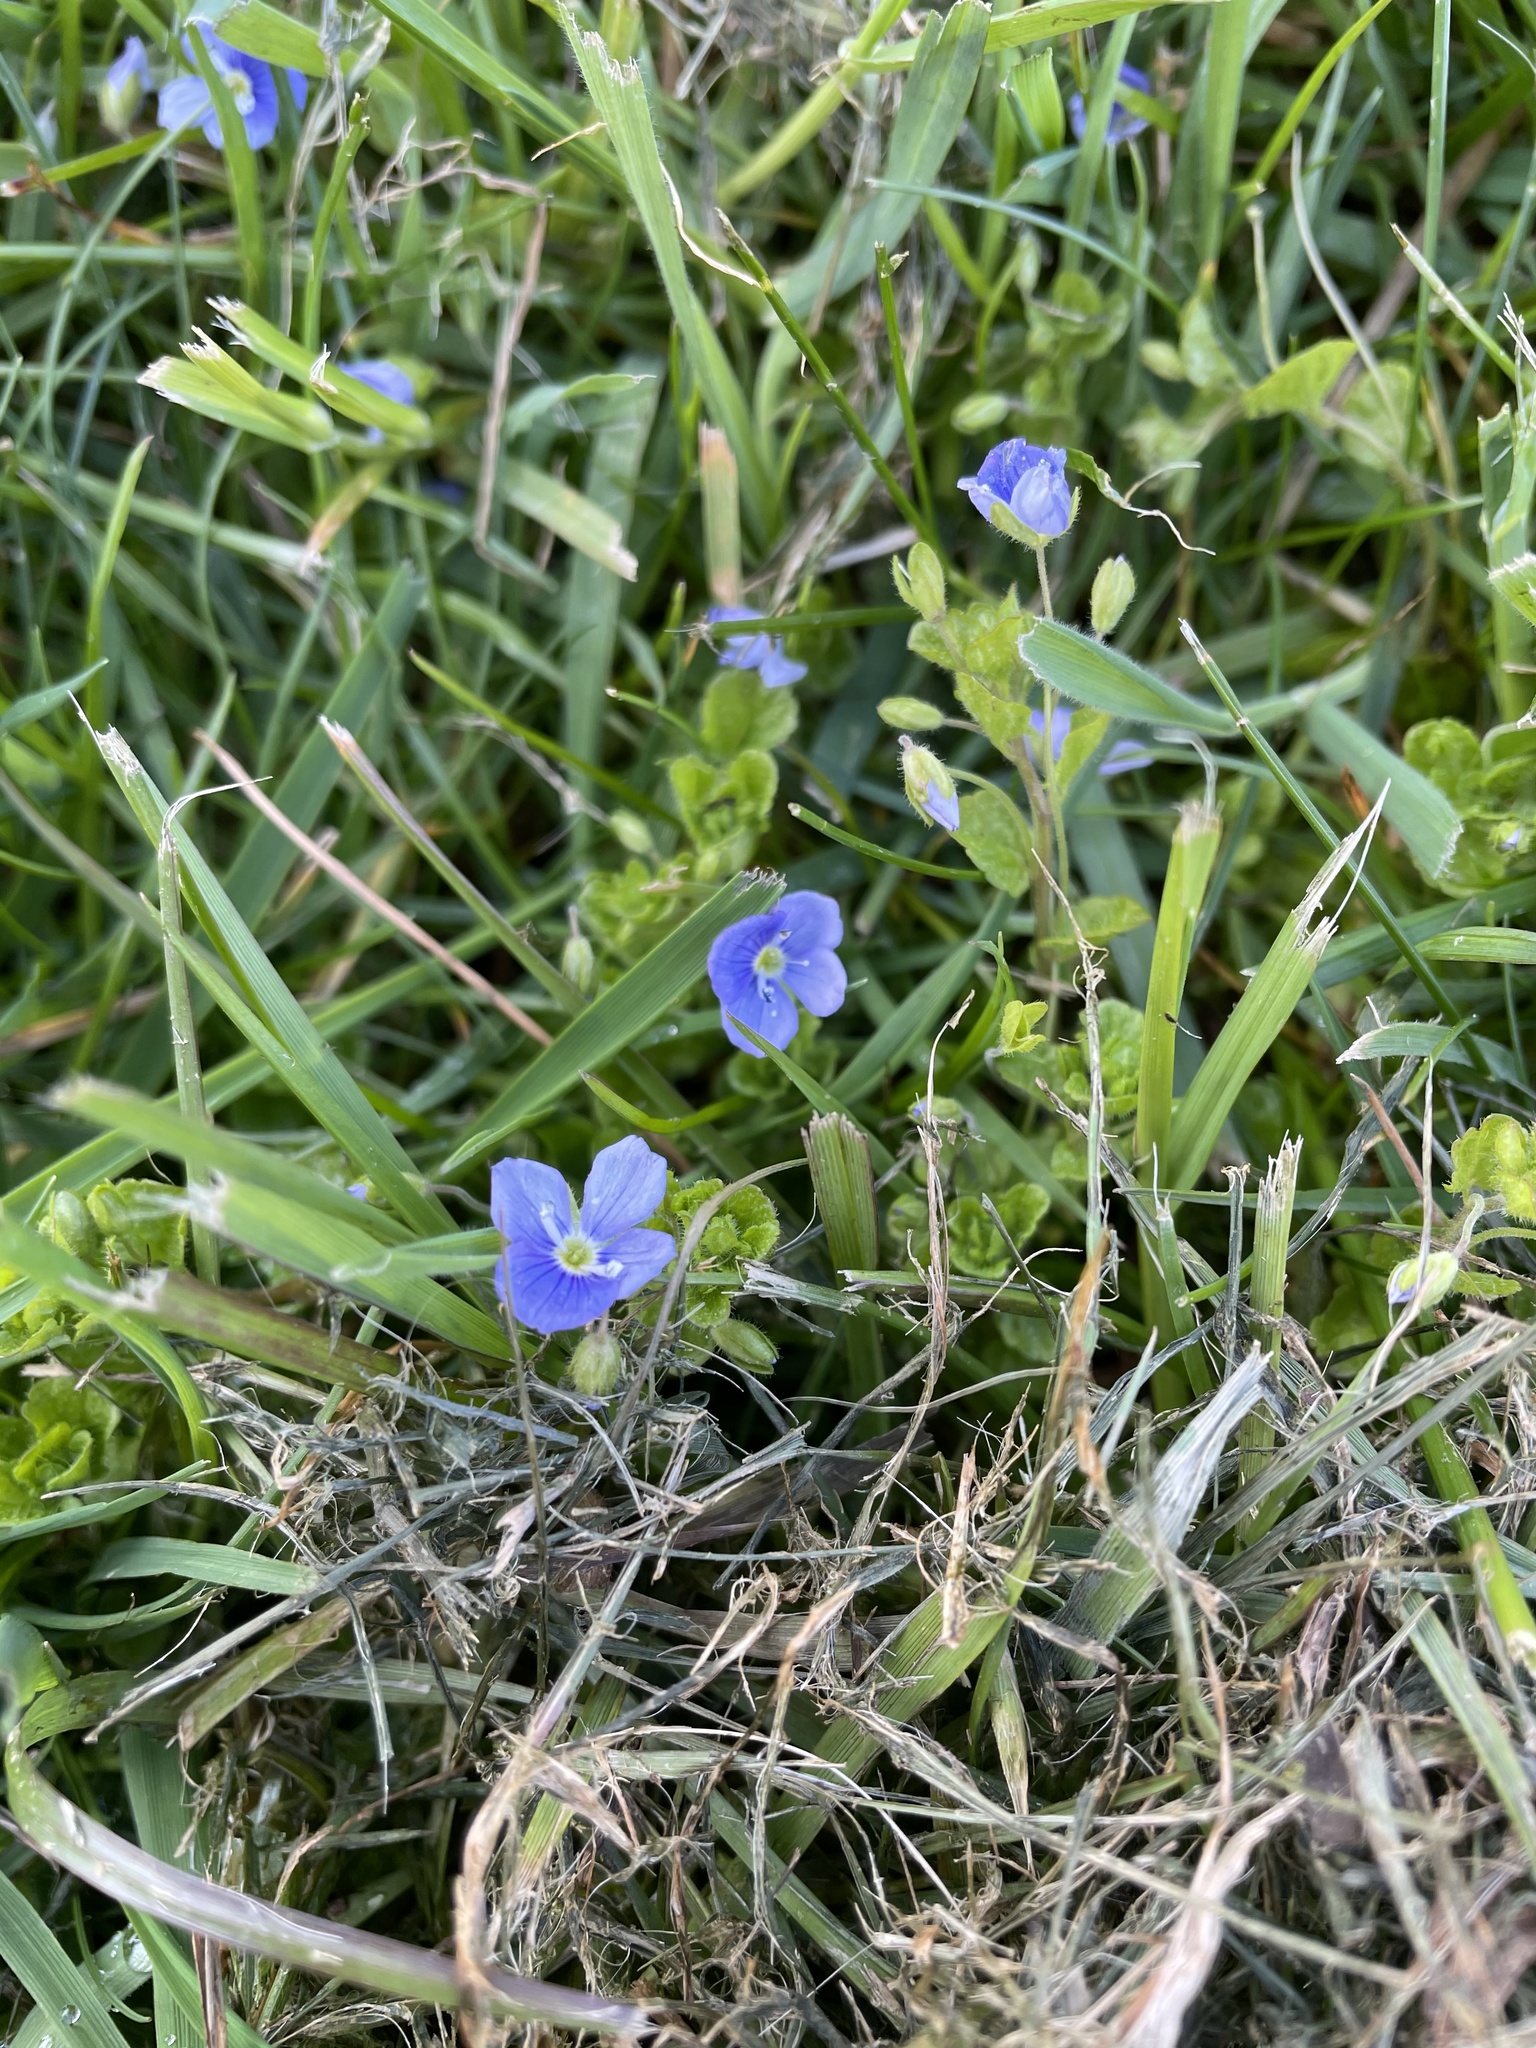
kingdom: Plantae
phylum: Tracheophyta
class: Magnoliopsida
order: Lamiales
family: Plantaginaceae
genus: Veronica
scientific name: Veronica filiformis
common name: Slender speedwell
